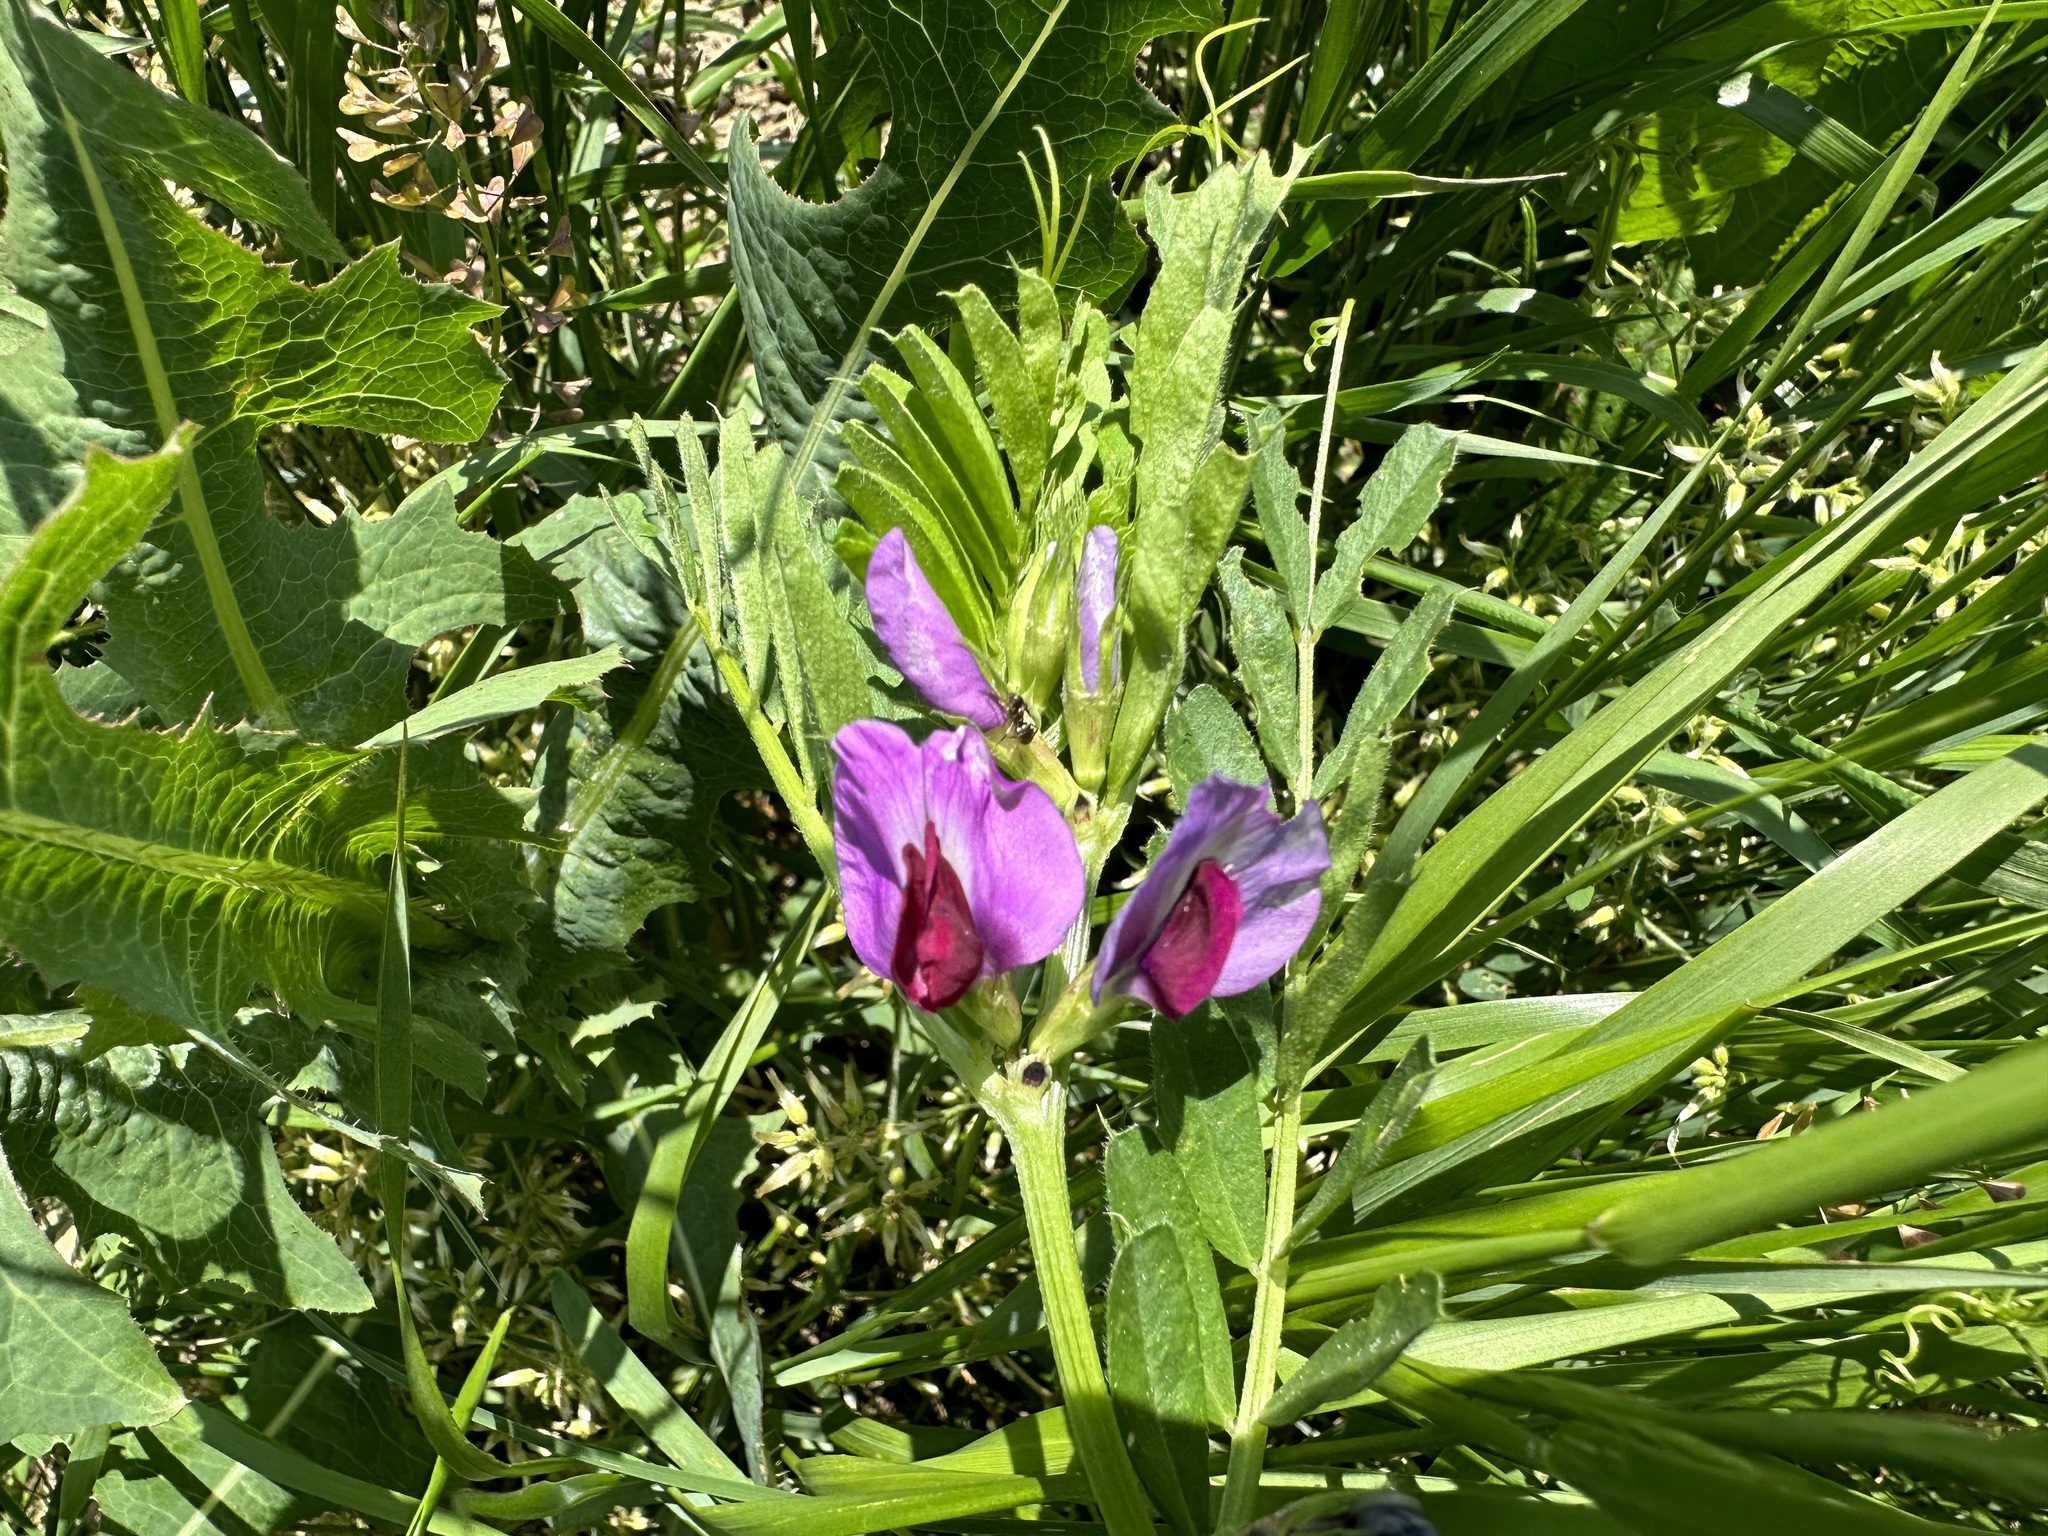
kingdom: Plantae
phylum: Tracheophyta
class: Magnoliopsida
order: Fabales
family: Fabaceae
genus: Vicia
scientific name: Vicia sativa
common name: Garden vetch
